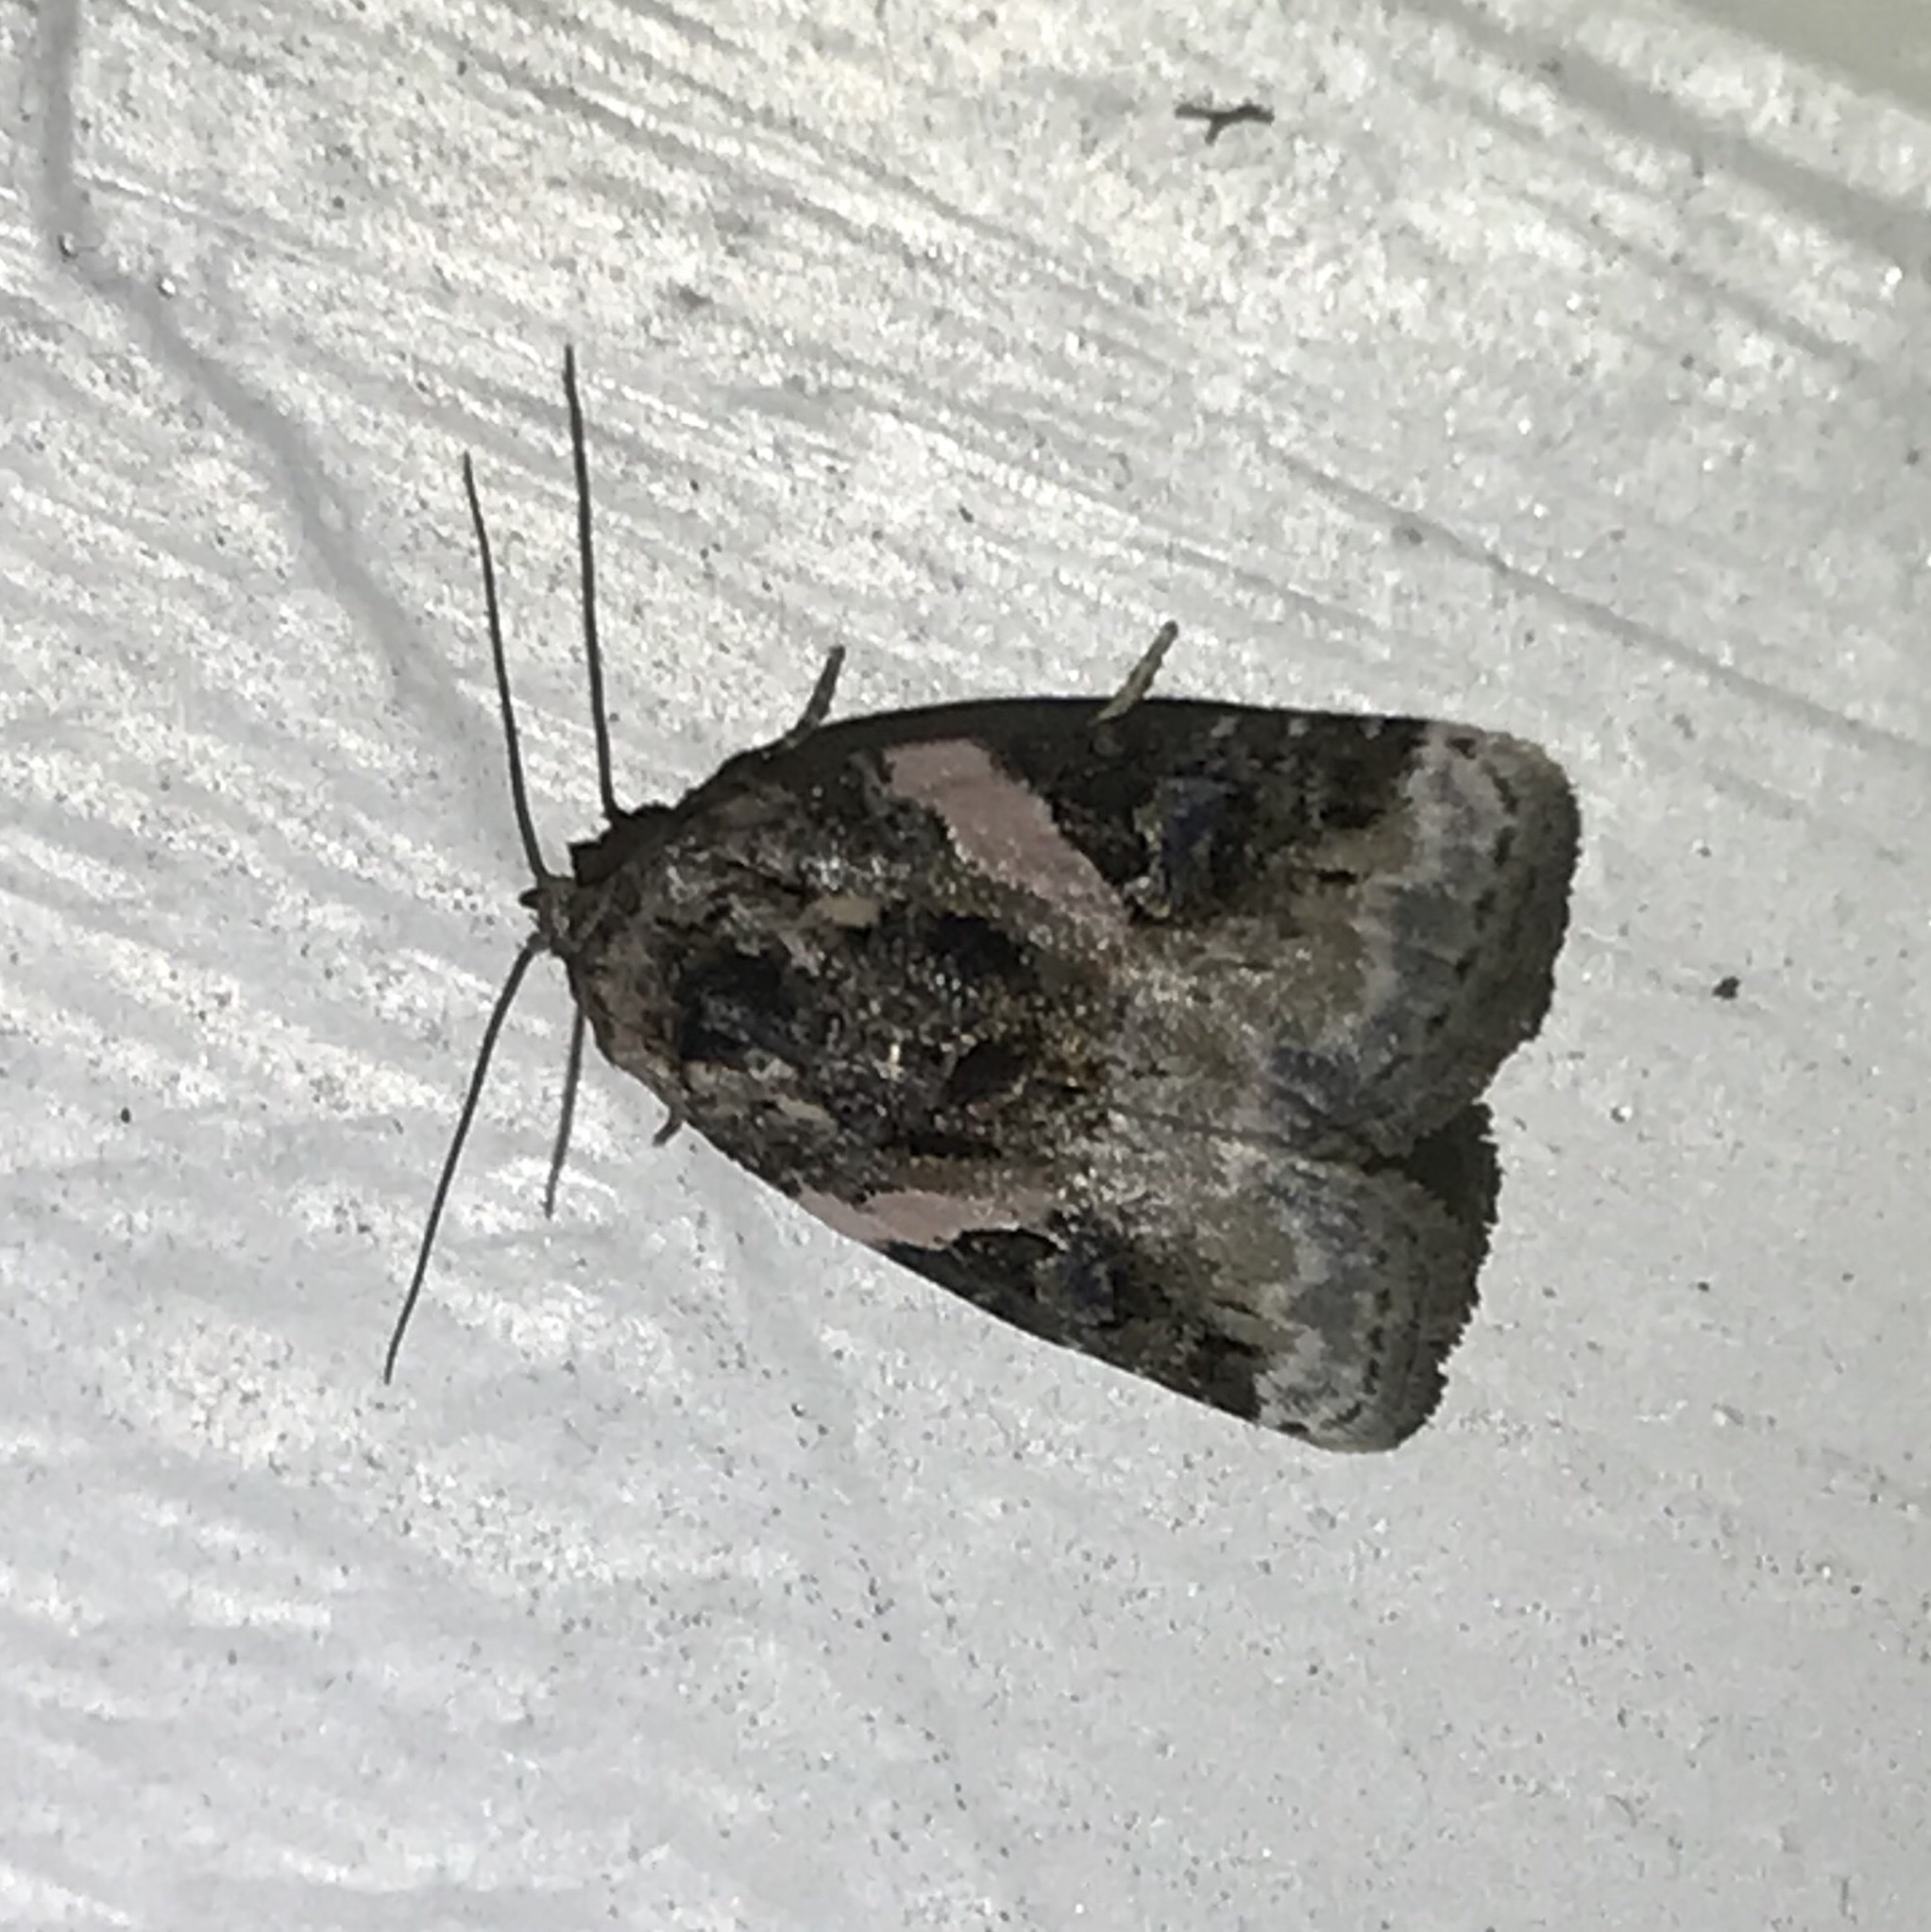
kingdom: Animalia
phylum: Arthropoda
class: Insecta
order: Lepidoptera
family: Noctuidae
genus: Pseudeustrotia
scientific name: Pseudeustrotia carneola
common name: Pink-barred lithacodia moth
